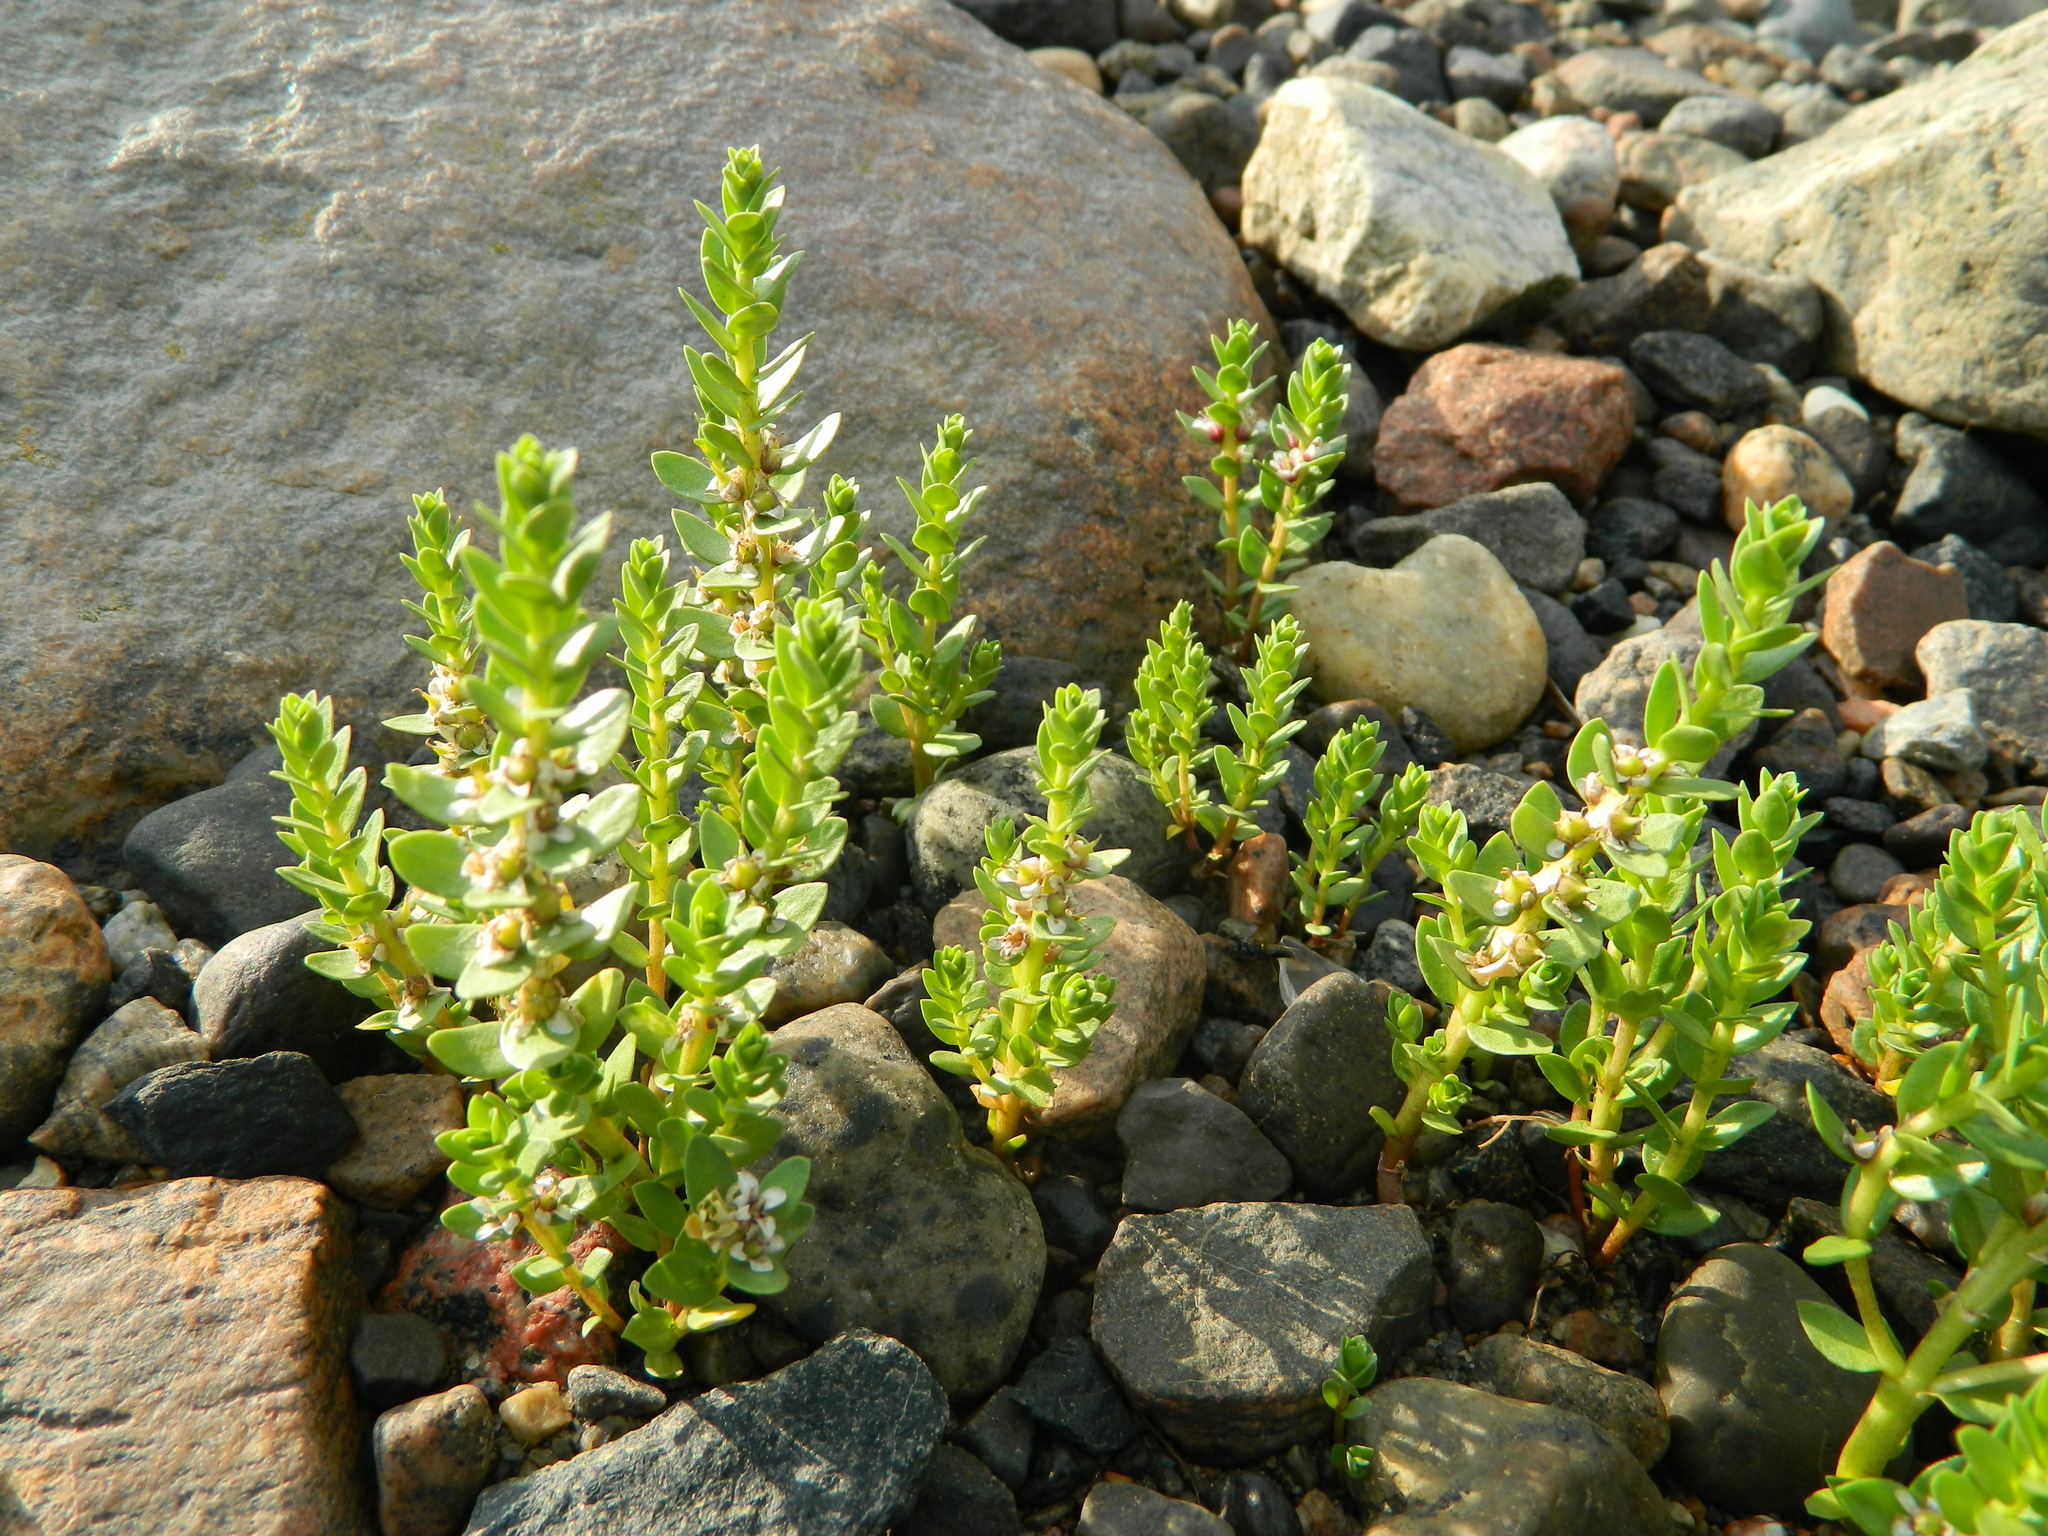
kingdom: Plantae
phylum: Tracheophyta
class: Magnoliopsida
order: Ericales
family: Primulaceae
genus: Lysimachia
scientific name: Lysimachia maritima
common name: Sea milkwort
